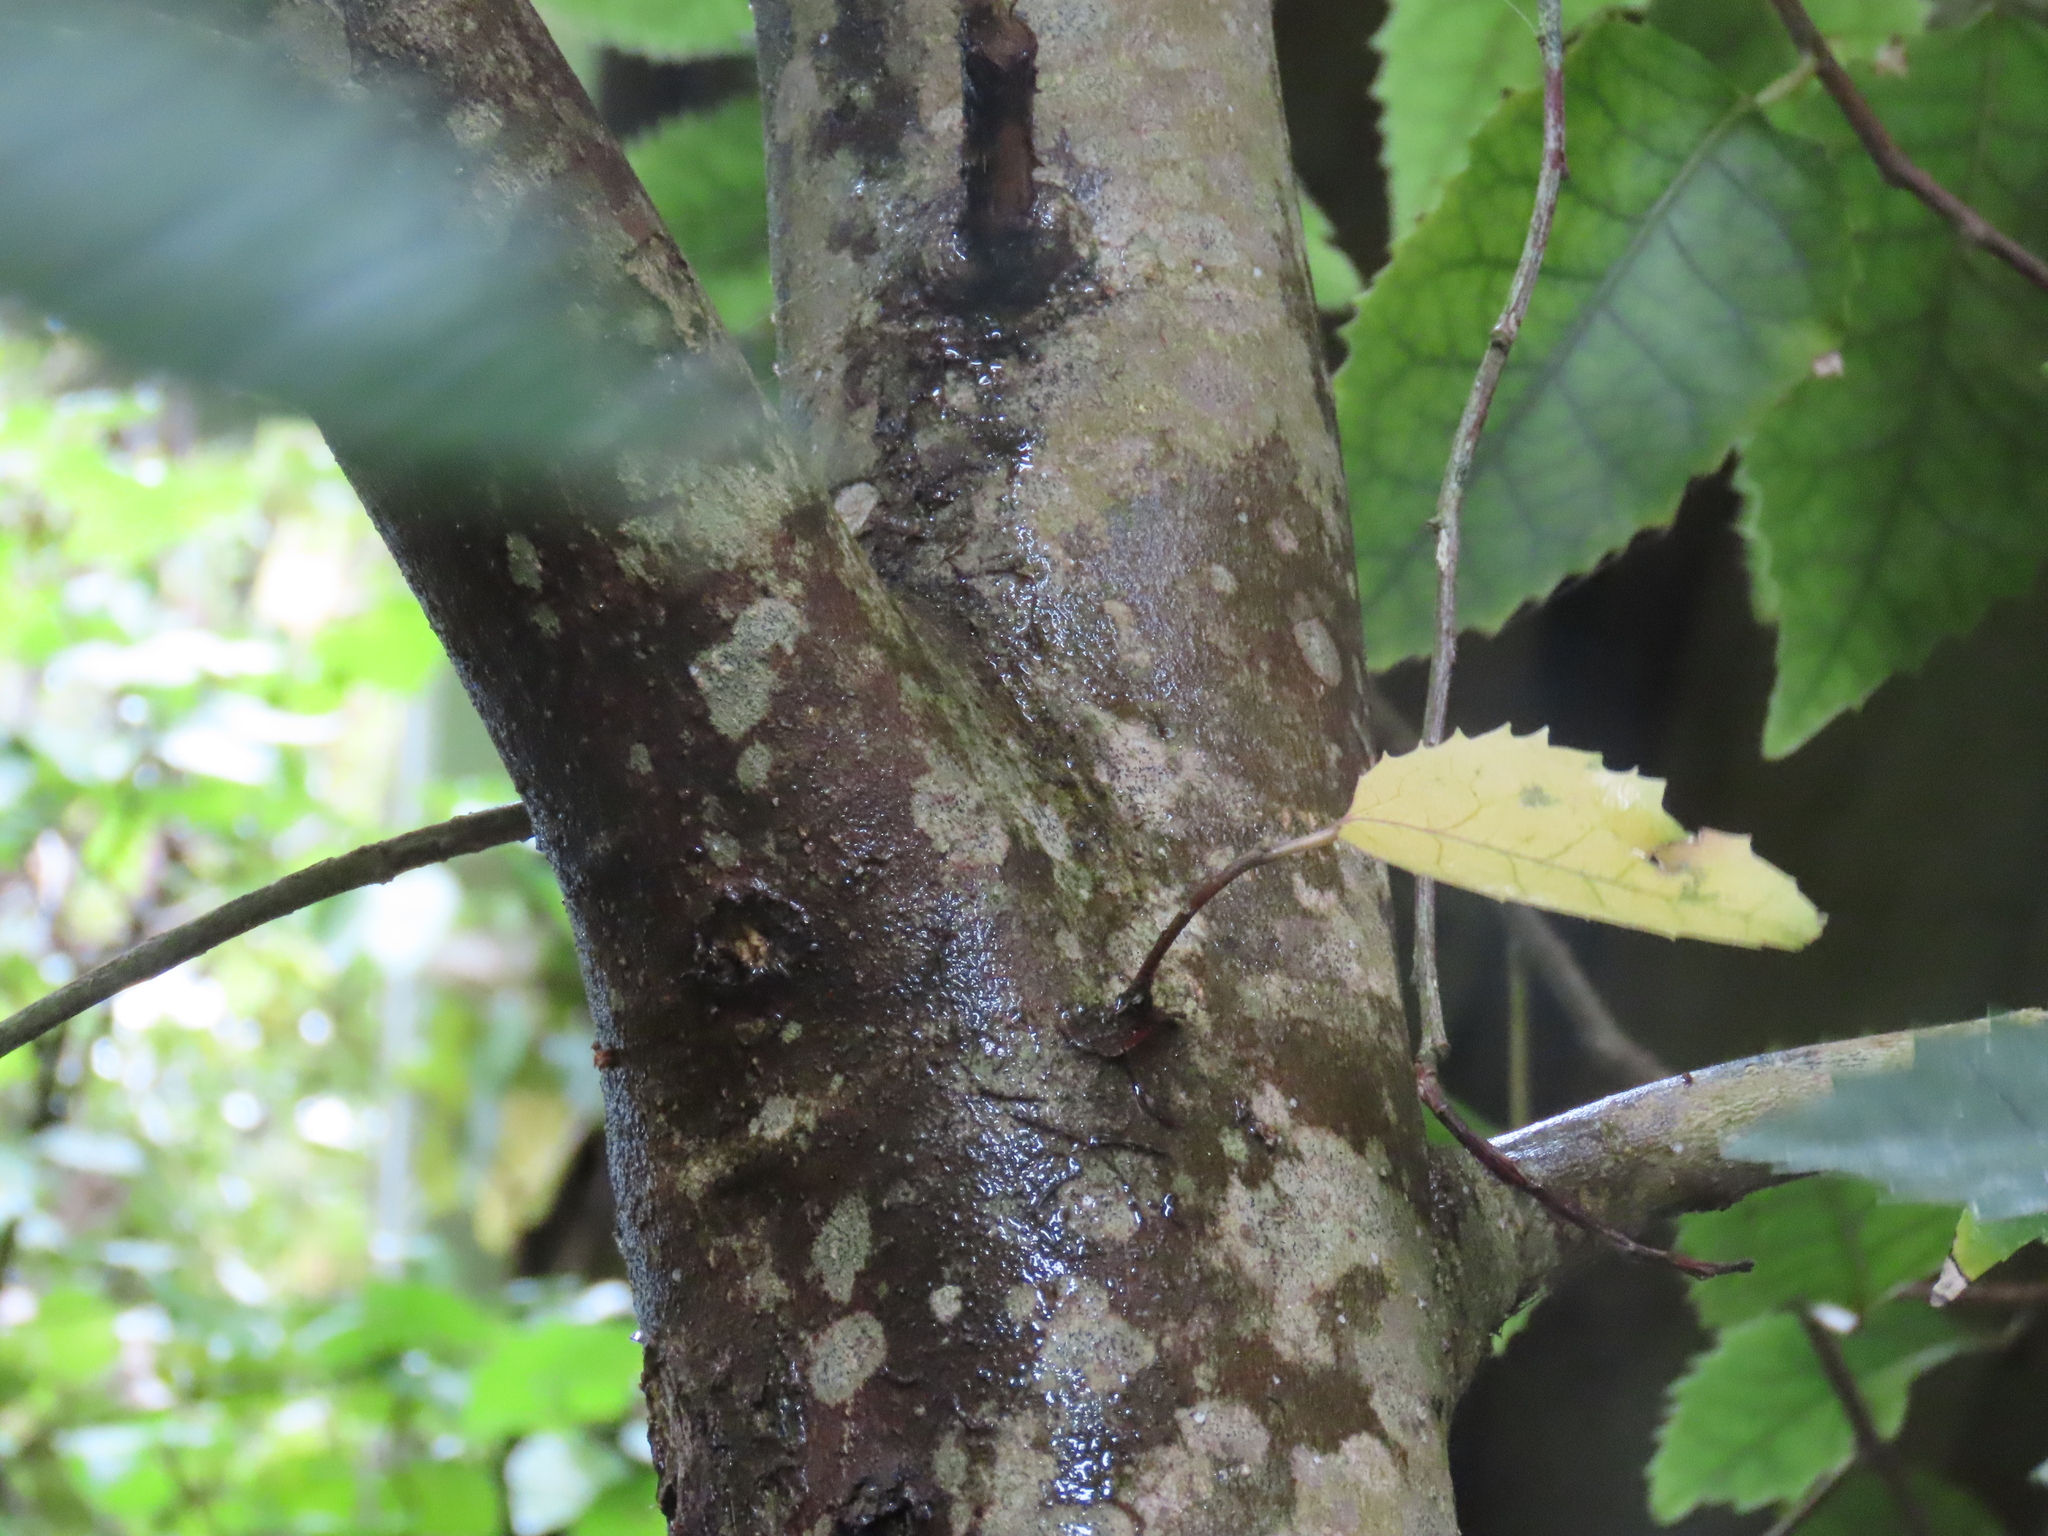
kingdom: Plantae
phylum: Tracheophyta
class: Magnoliopsida
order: Malvales
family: Malvaceae
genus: Hoheria
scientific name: Hoheria populnea
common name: Lacebark
